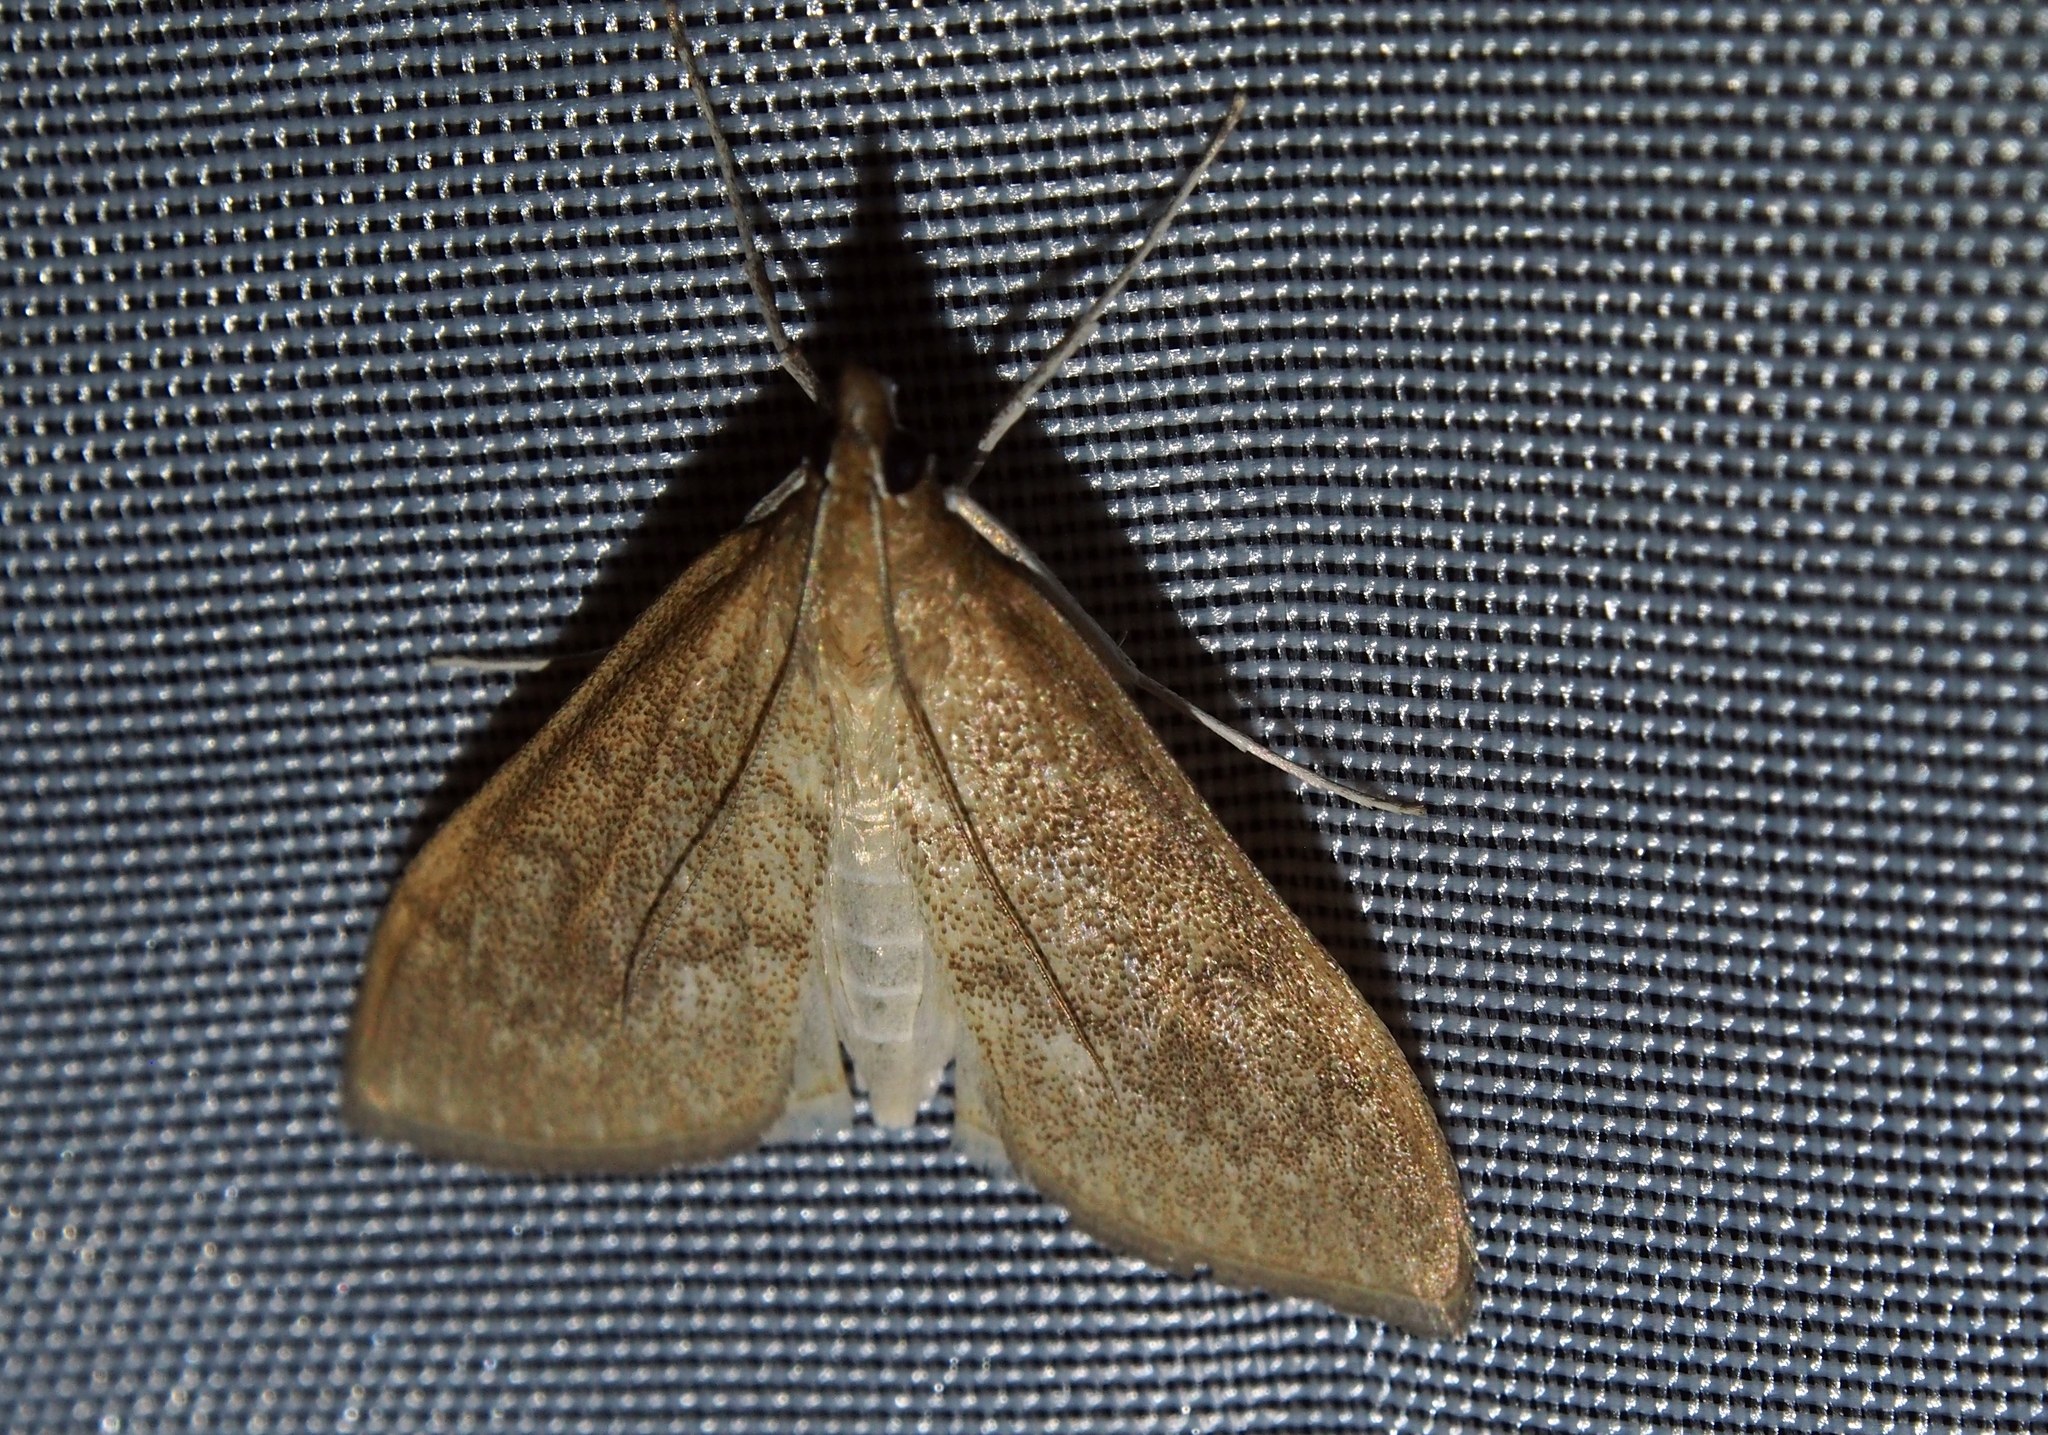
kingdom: Animalia
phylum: Arthropoda
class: Insecta
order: Lepidoptera
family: Crambidae
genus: Saucrobotys
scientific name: Saucrobotys futilalis
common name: Dogbane saucrobotys moth
